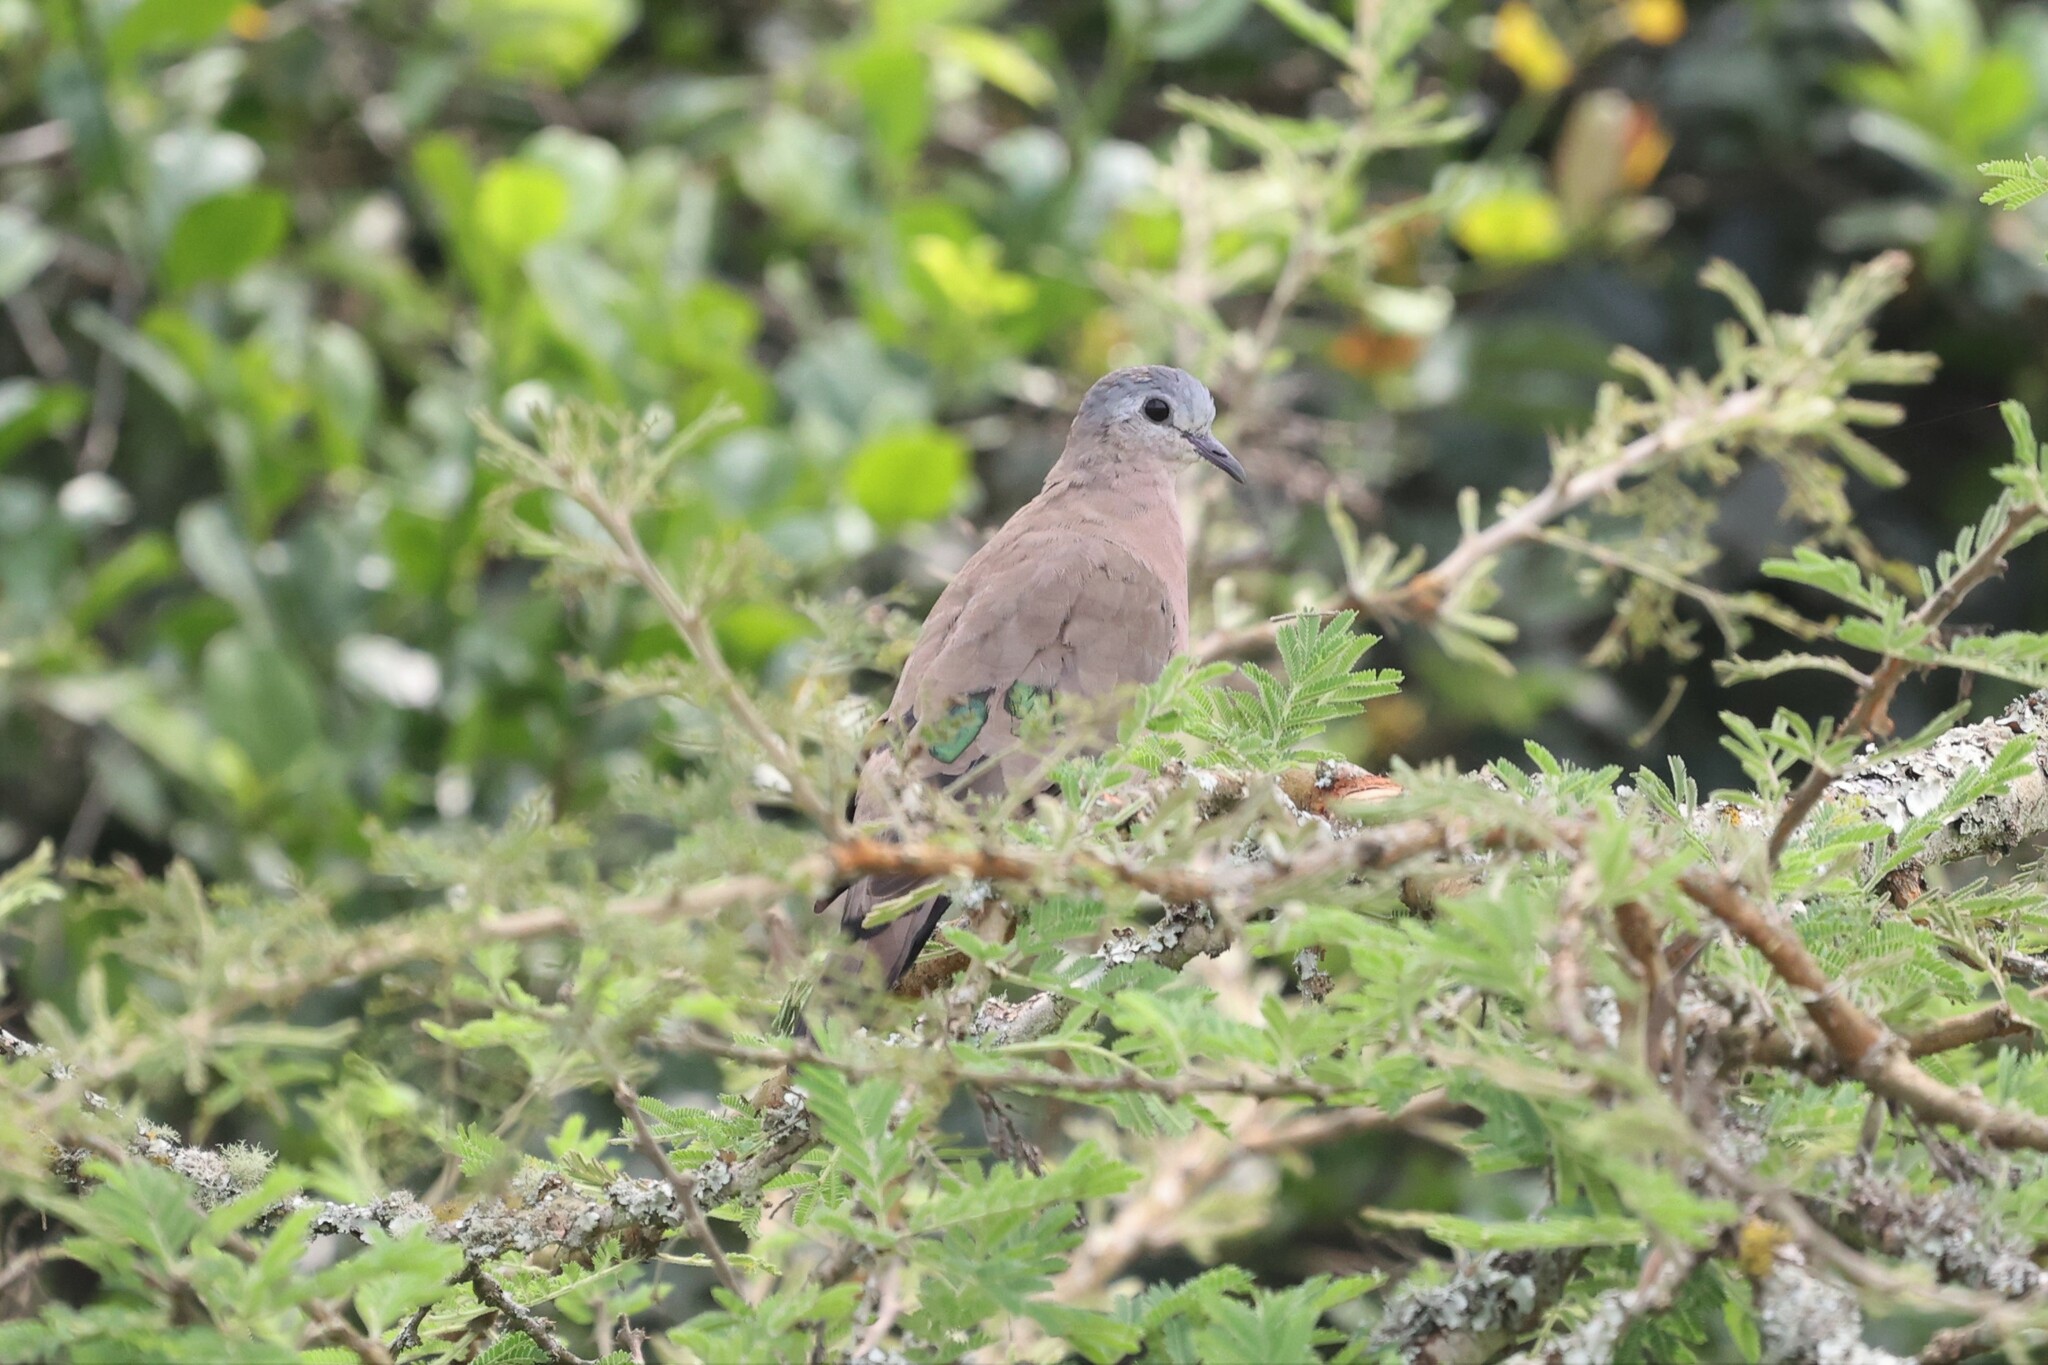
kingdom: Animalia
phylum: Chordata
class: Aves
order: Columbiformes
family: Columbidae
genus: Turtur
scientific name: Turtur chalcospilos
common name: Emerald-spotted wood dove
